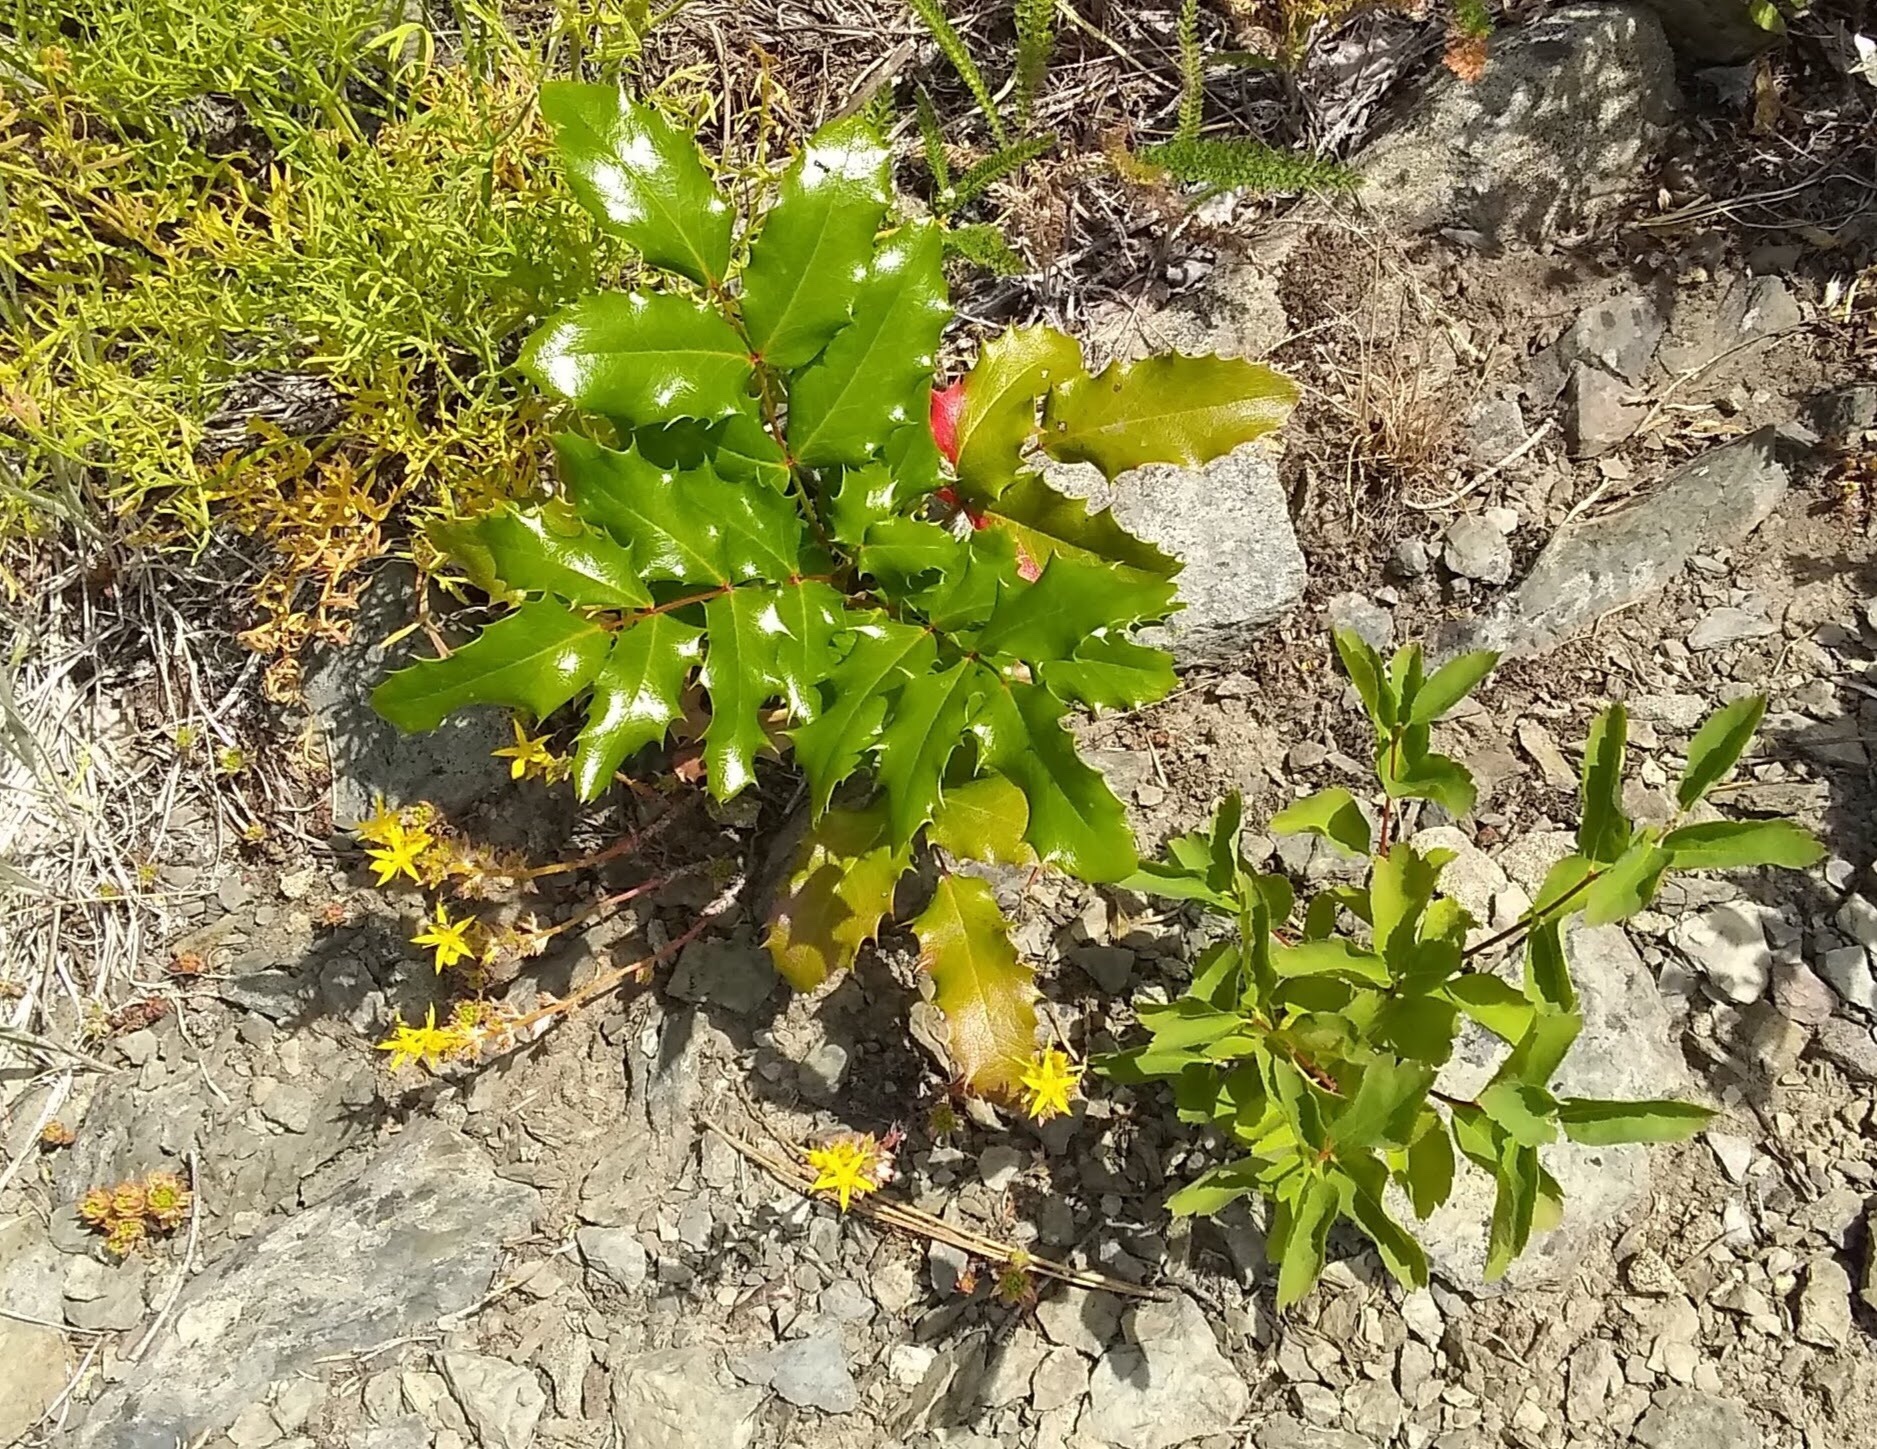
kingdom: Plantae
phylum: Tracheophyta
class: Magnoliopsida
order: Ranunculales
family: Berberidaceae
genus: Mahonia
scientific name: Mahonia aquifolium
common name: Oregon-grape
